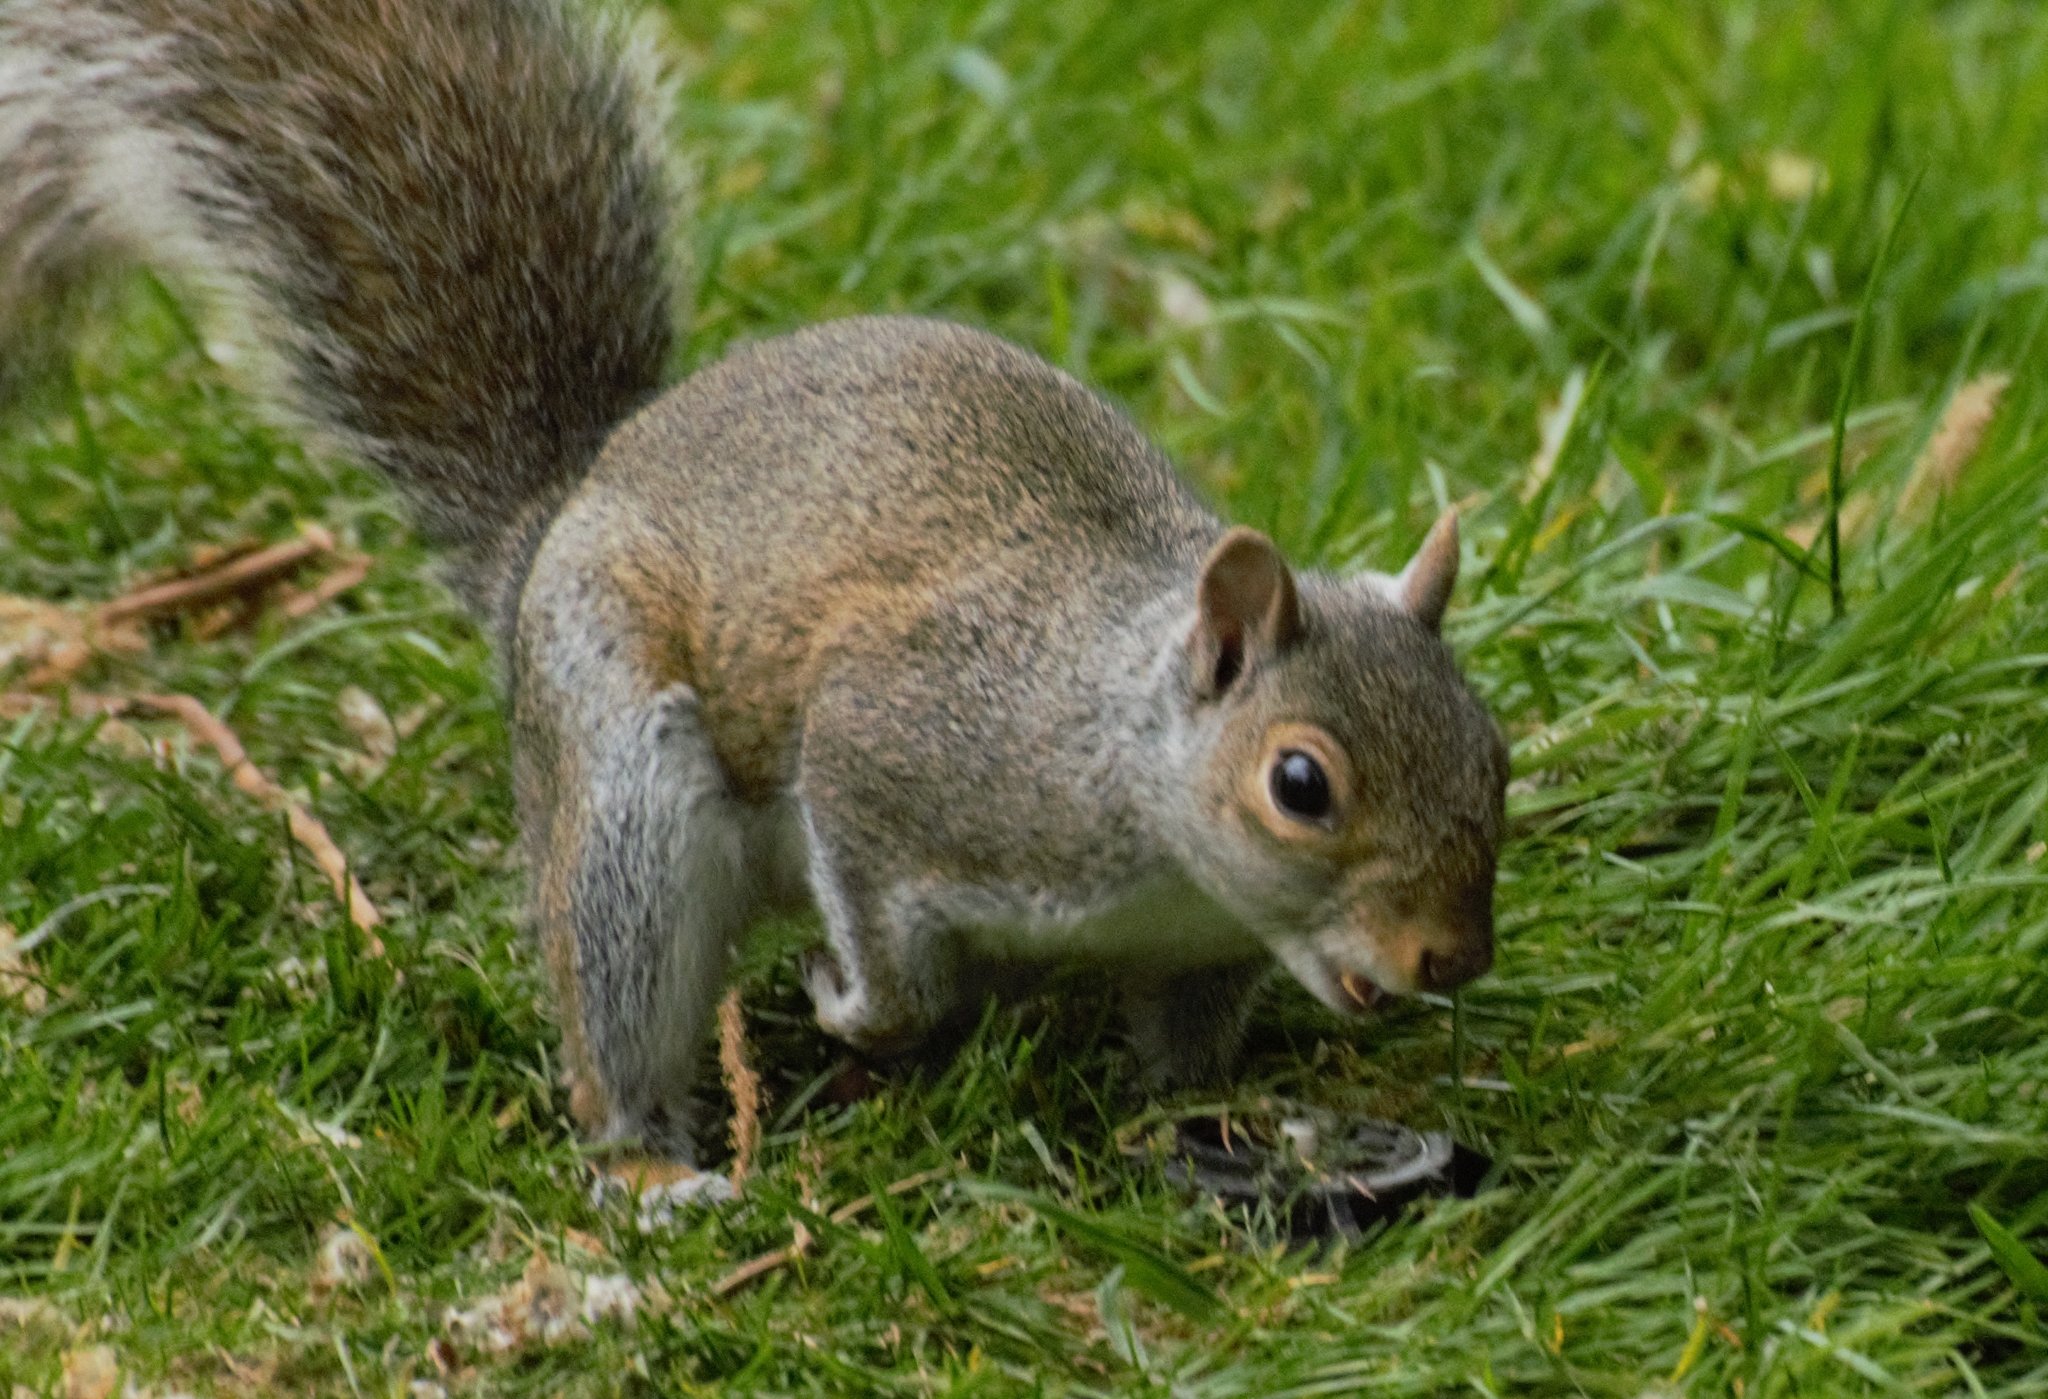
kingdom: Animalia
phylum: Chordata
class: Mammalia
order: Rodentia
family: Sciuridae
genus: Sciurus
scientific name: Sciurus carolinensis
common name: Eastern gray squirrel
